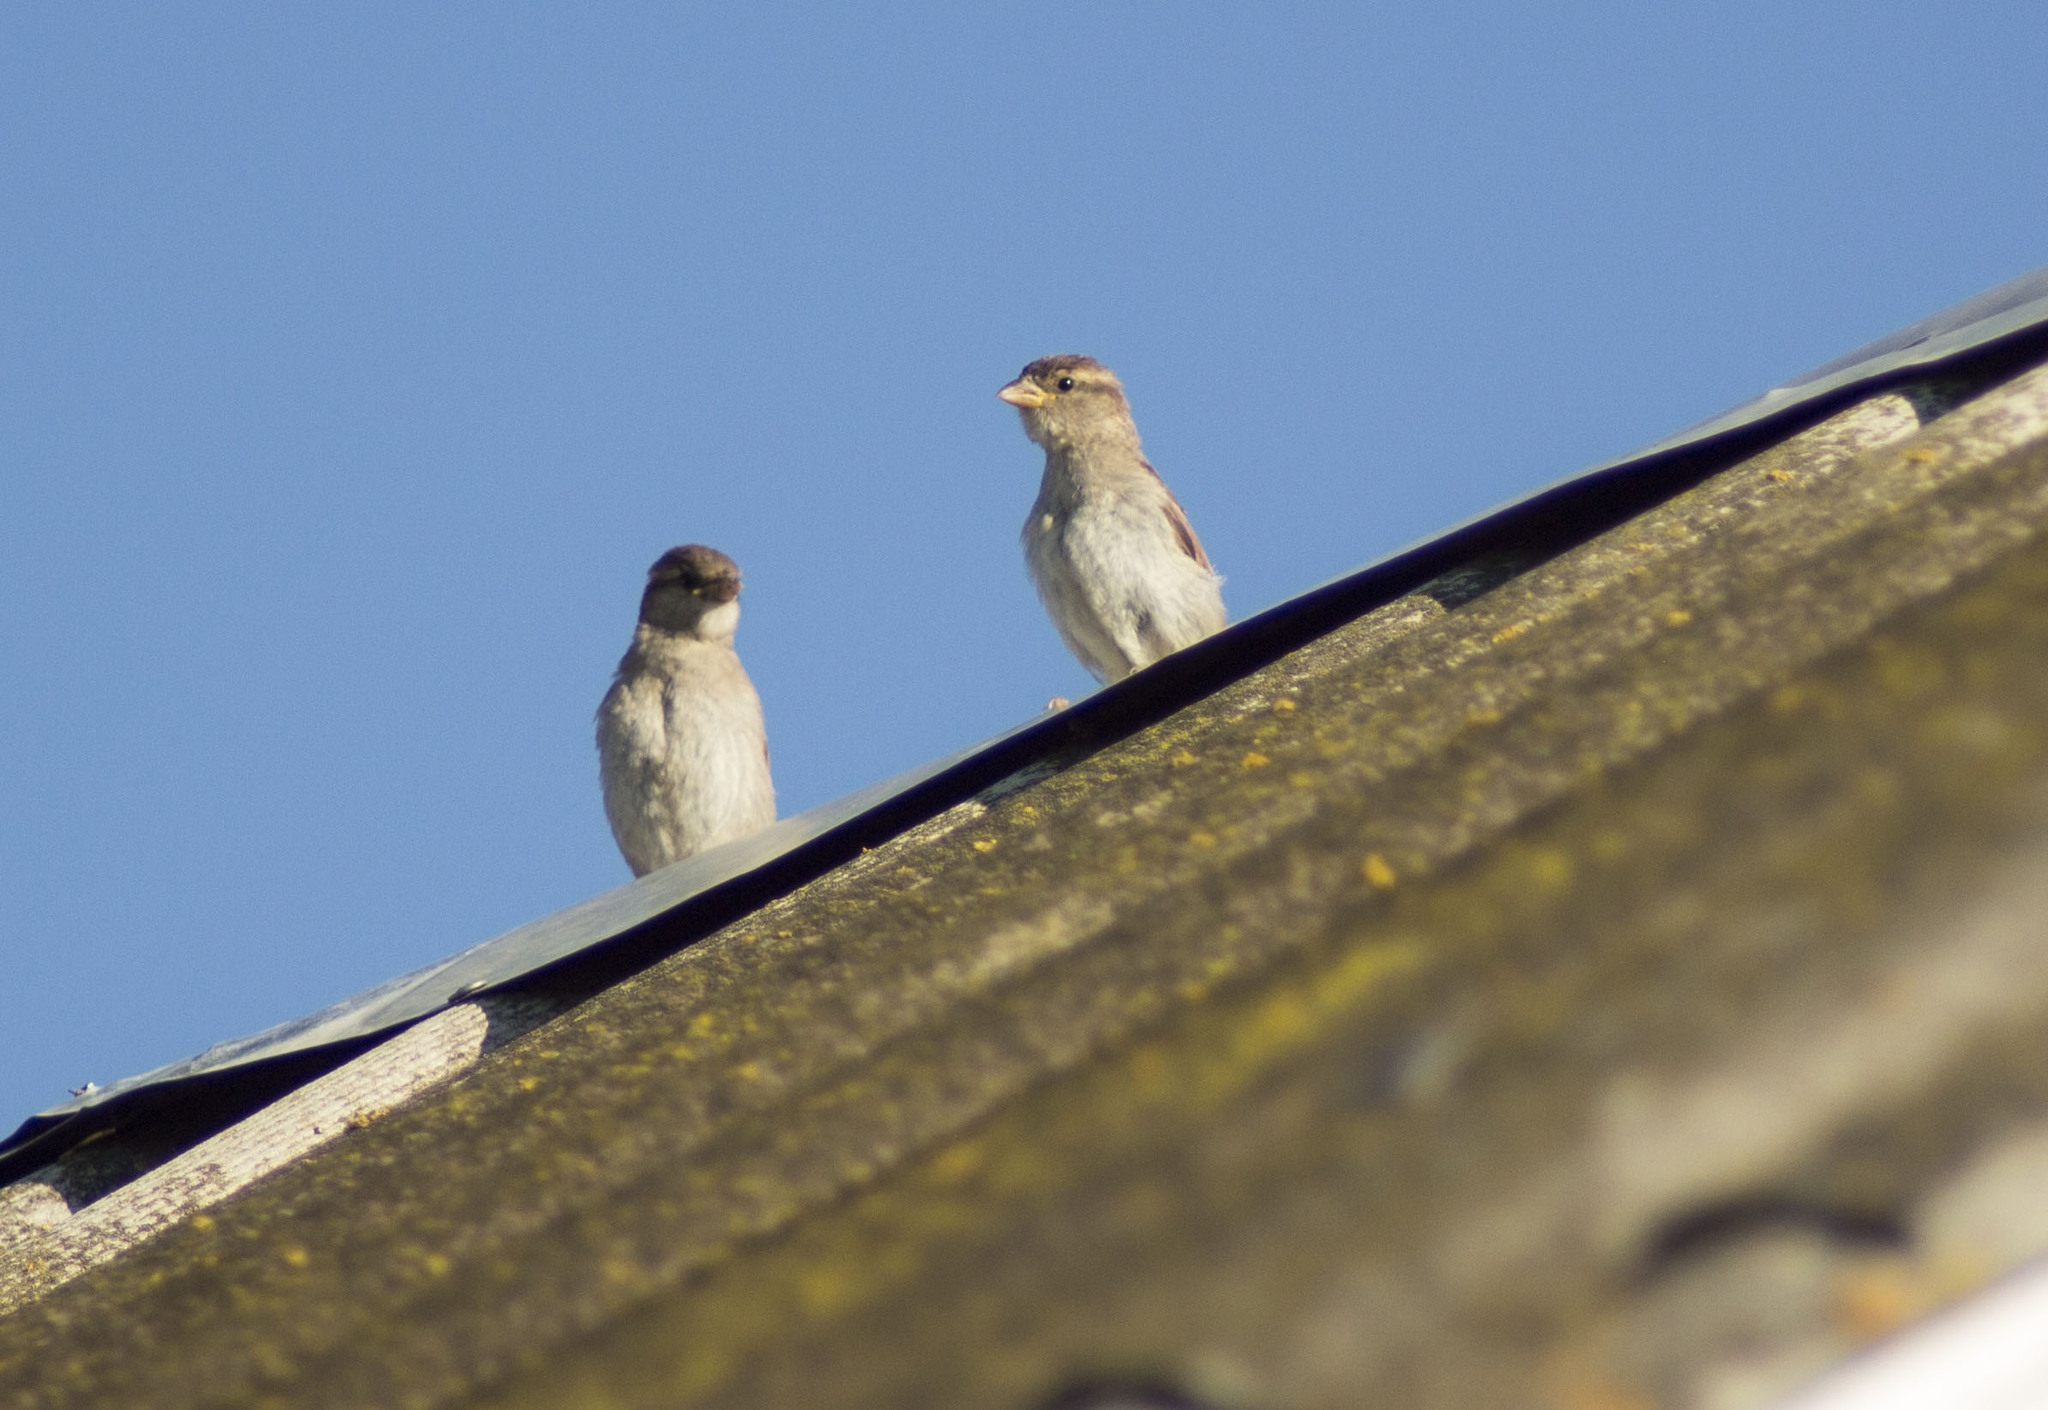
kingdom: Animalia
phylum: Chordata
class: Aves
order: Passeriformes
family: Passeridae
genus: Passer
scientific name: Passer domesticus
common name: House sparrow
